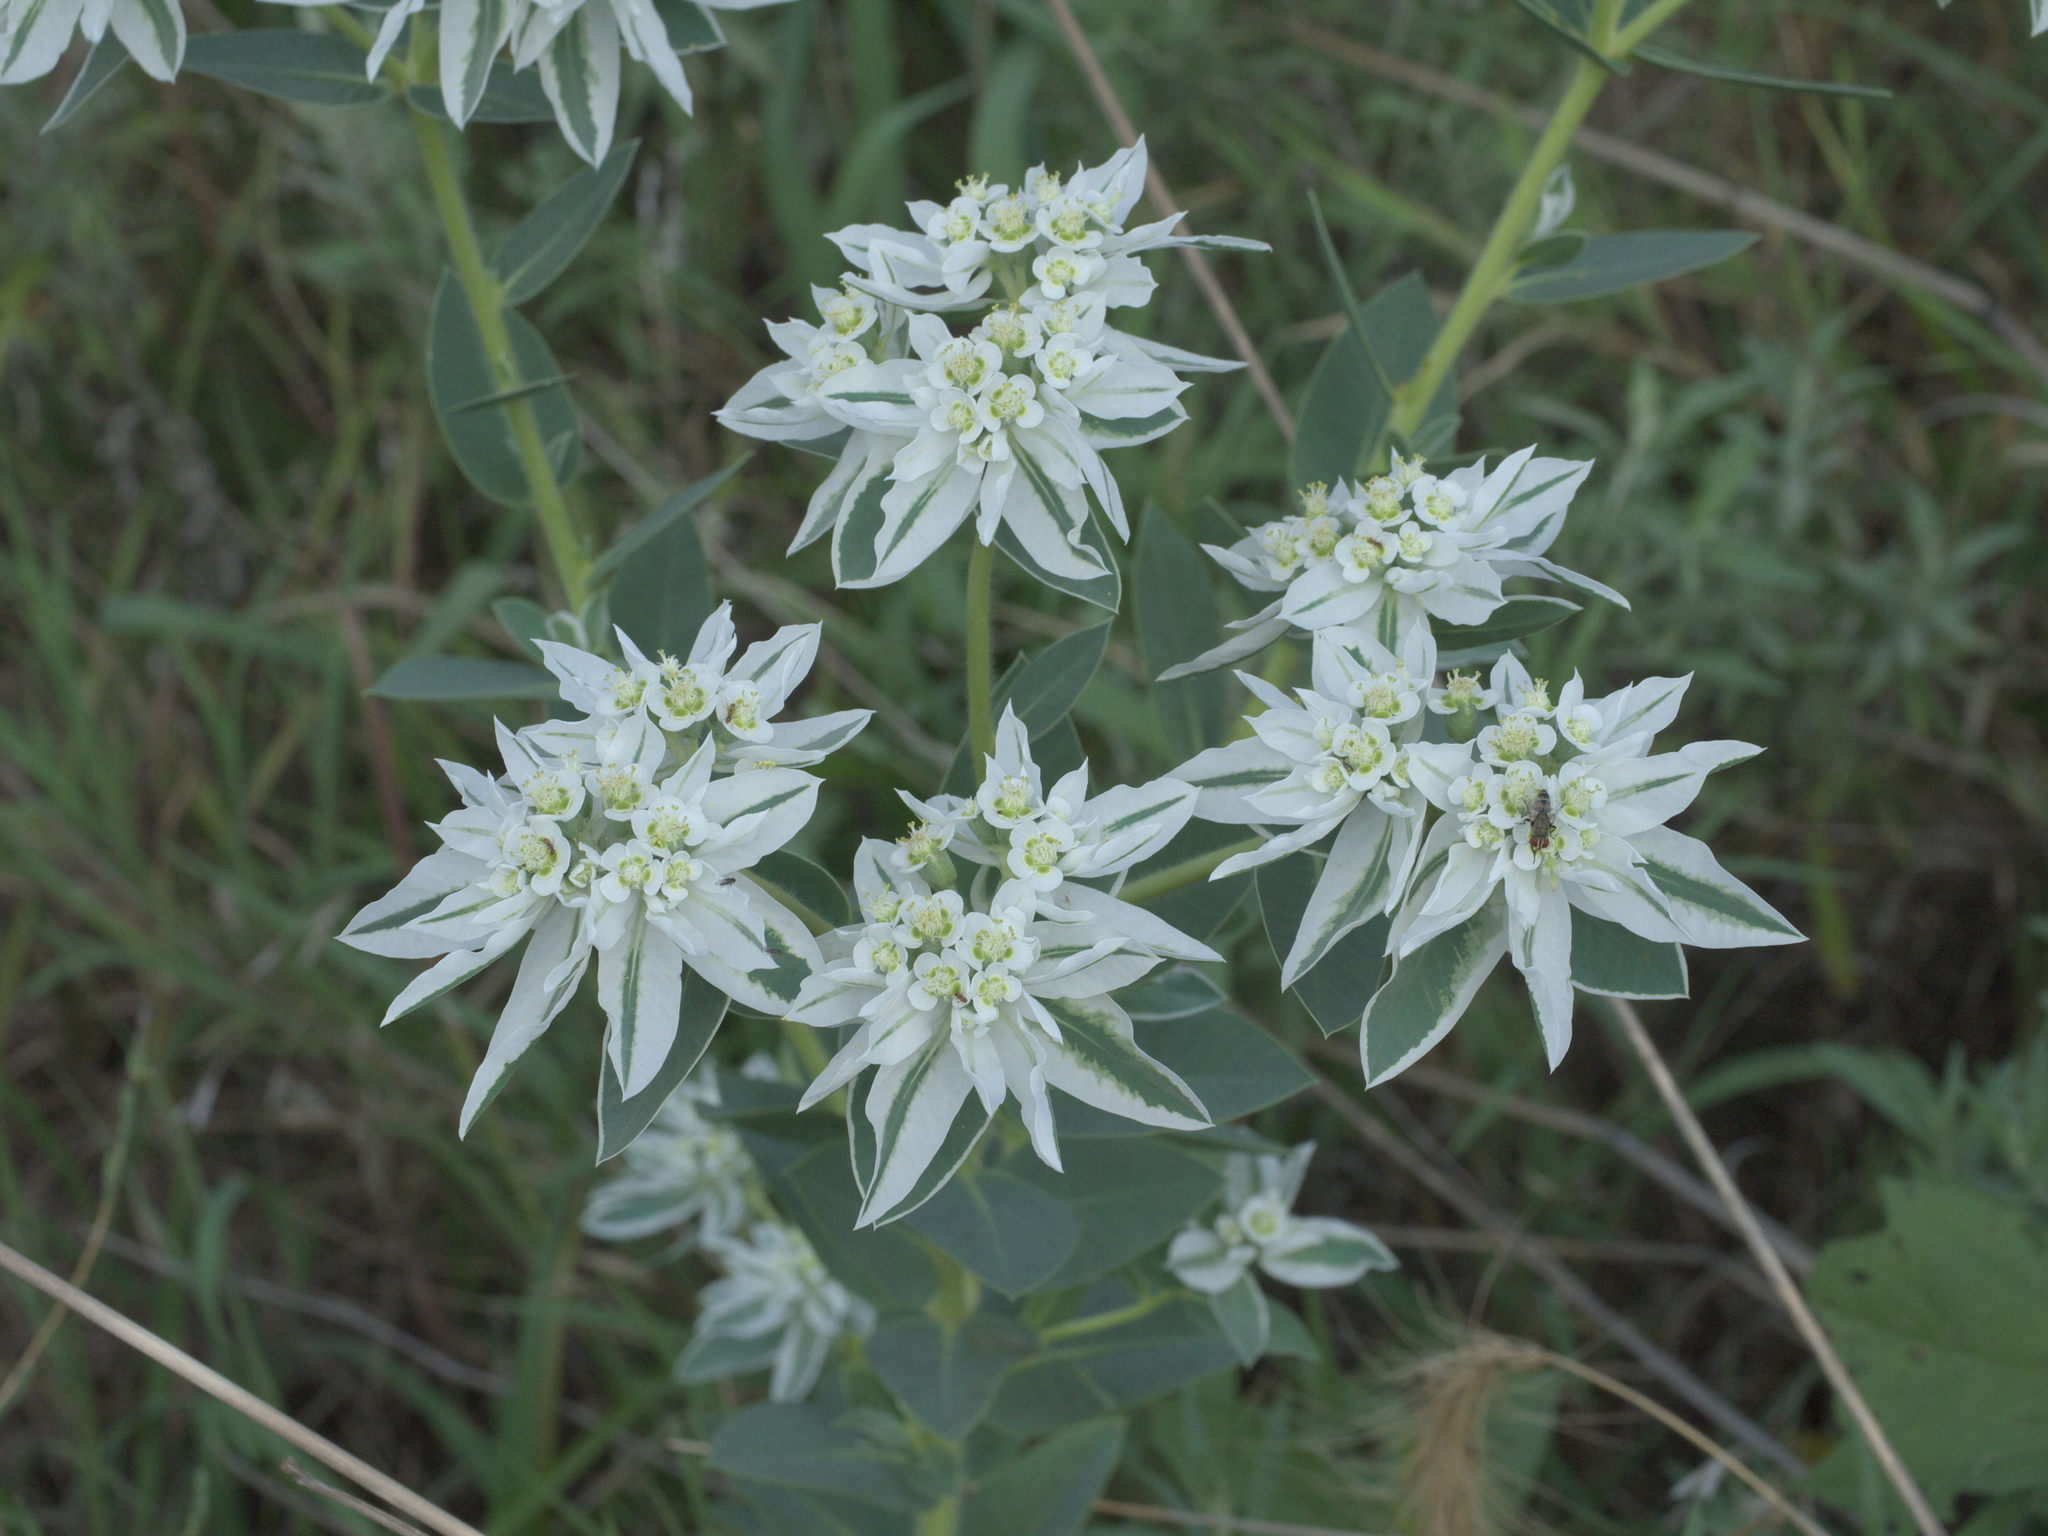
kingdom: Plantae
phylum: Tracheophyta
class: Magnoliopsida
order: Malpighiales
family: Euphorbiaceae
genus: Euphorbia
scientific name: Euphorbia marginata
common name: Ghostweed
